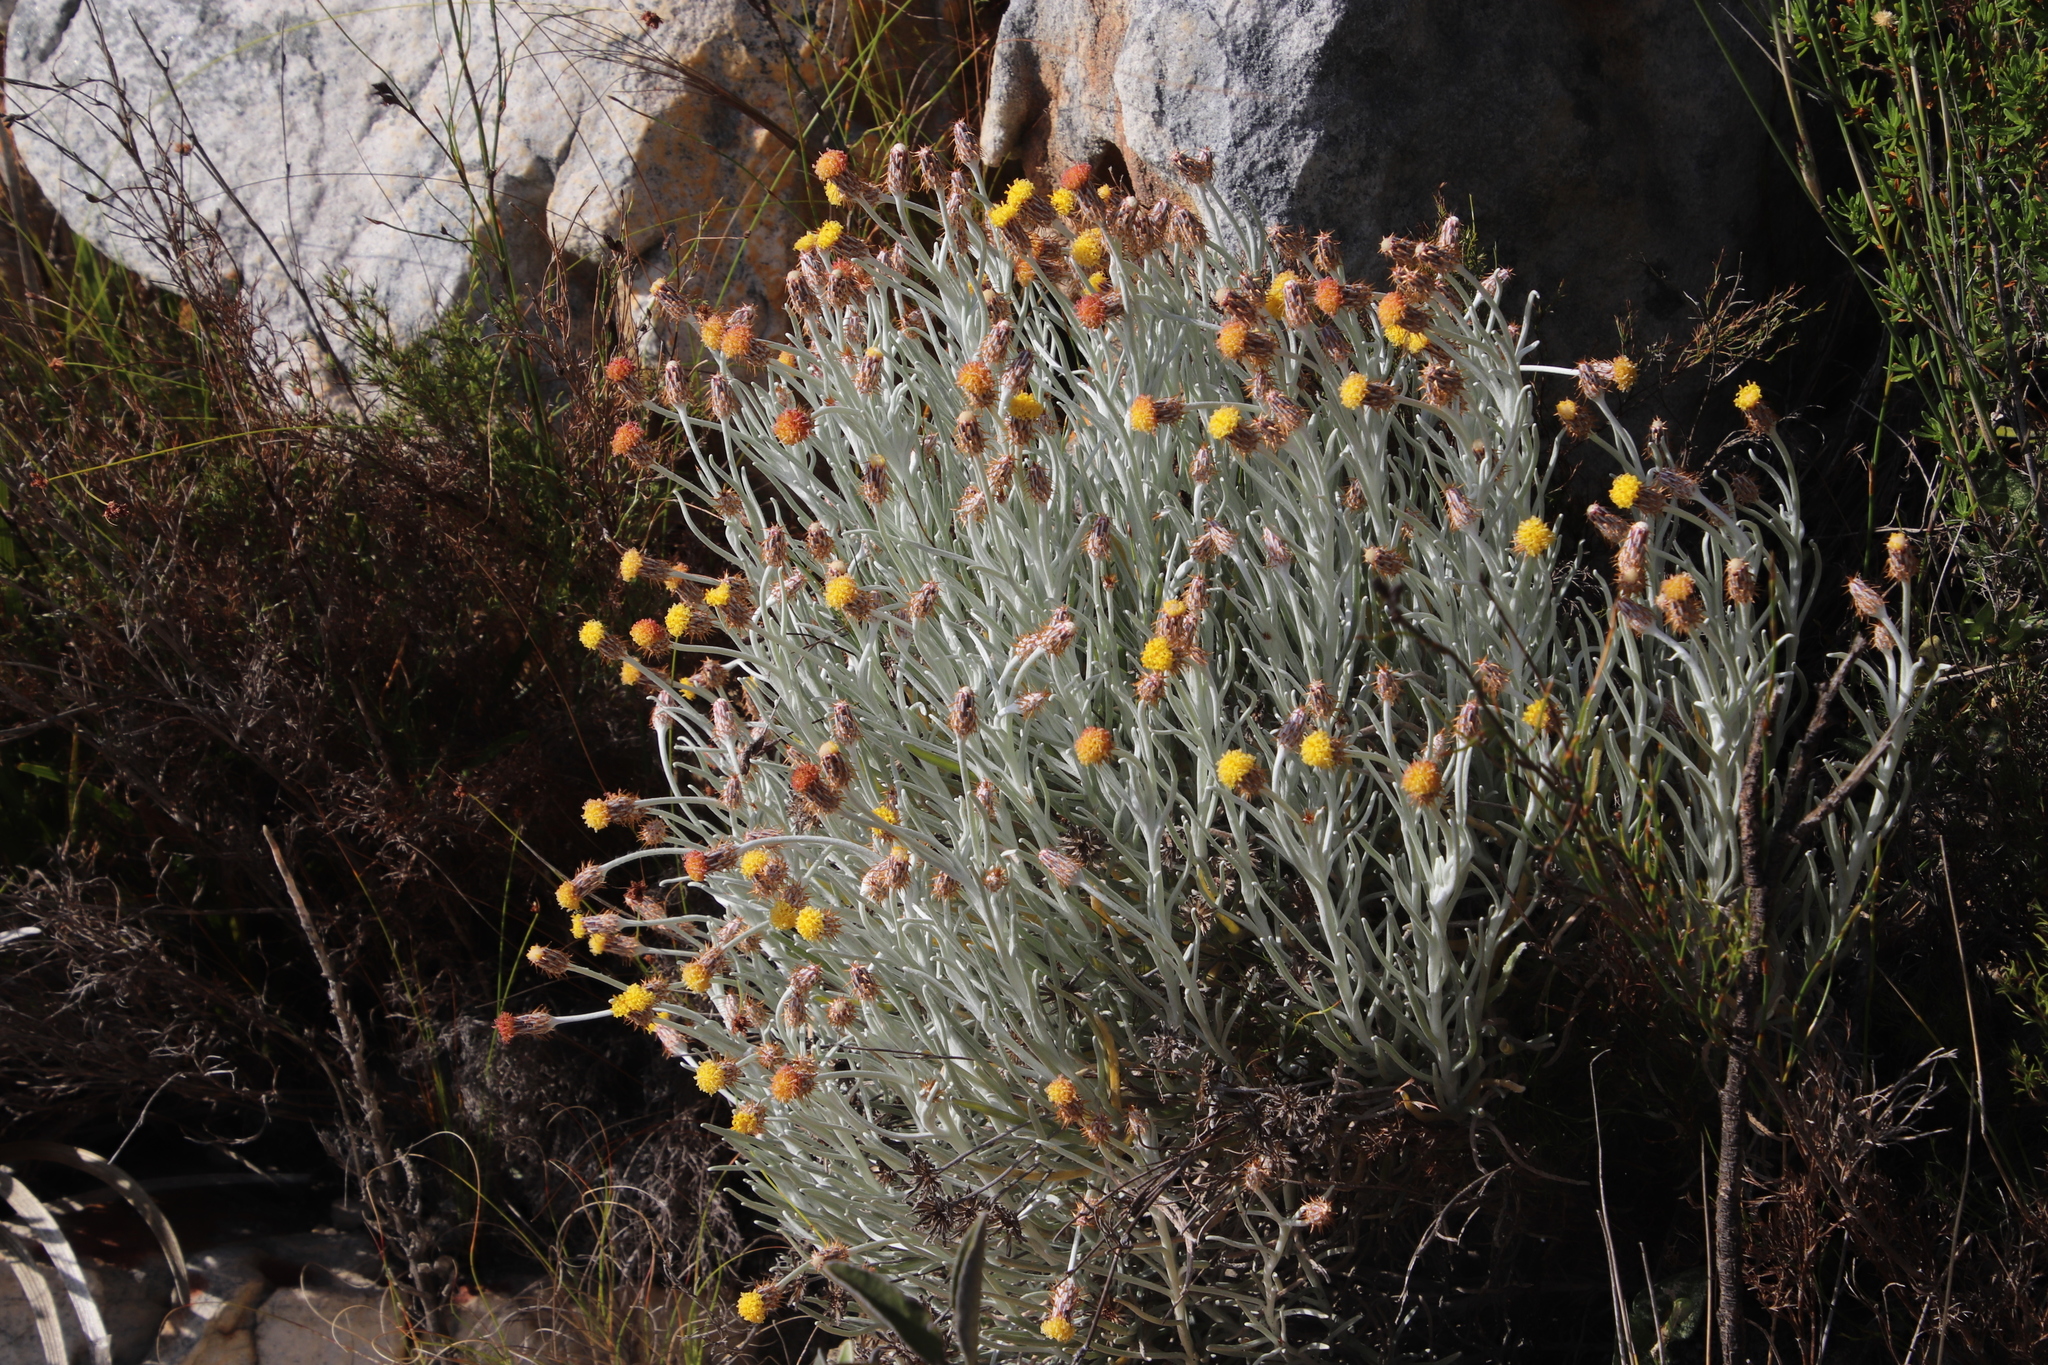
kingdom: Plantae
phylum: Tracheophyta
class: Magnoliopsida
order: Asterales
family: Asteraceae
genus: Syncarpha
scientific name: Syncarpha gnaphaloides
